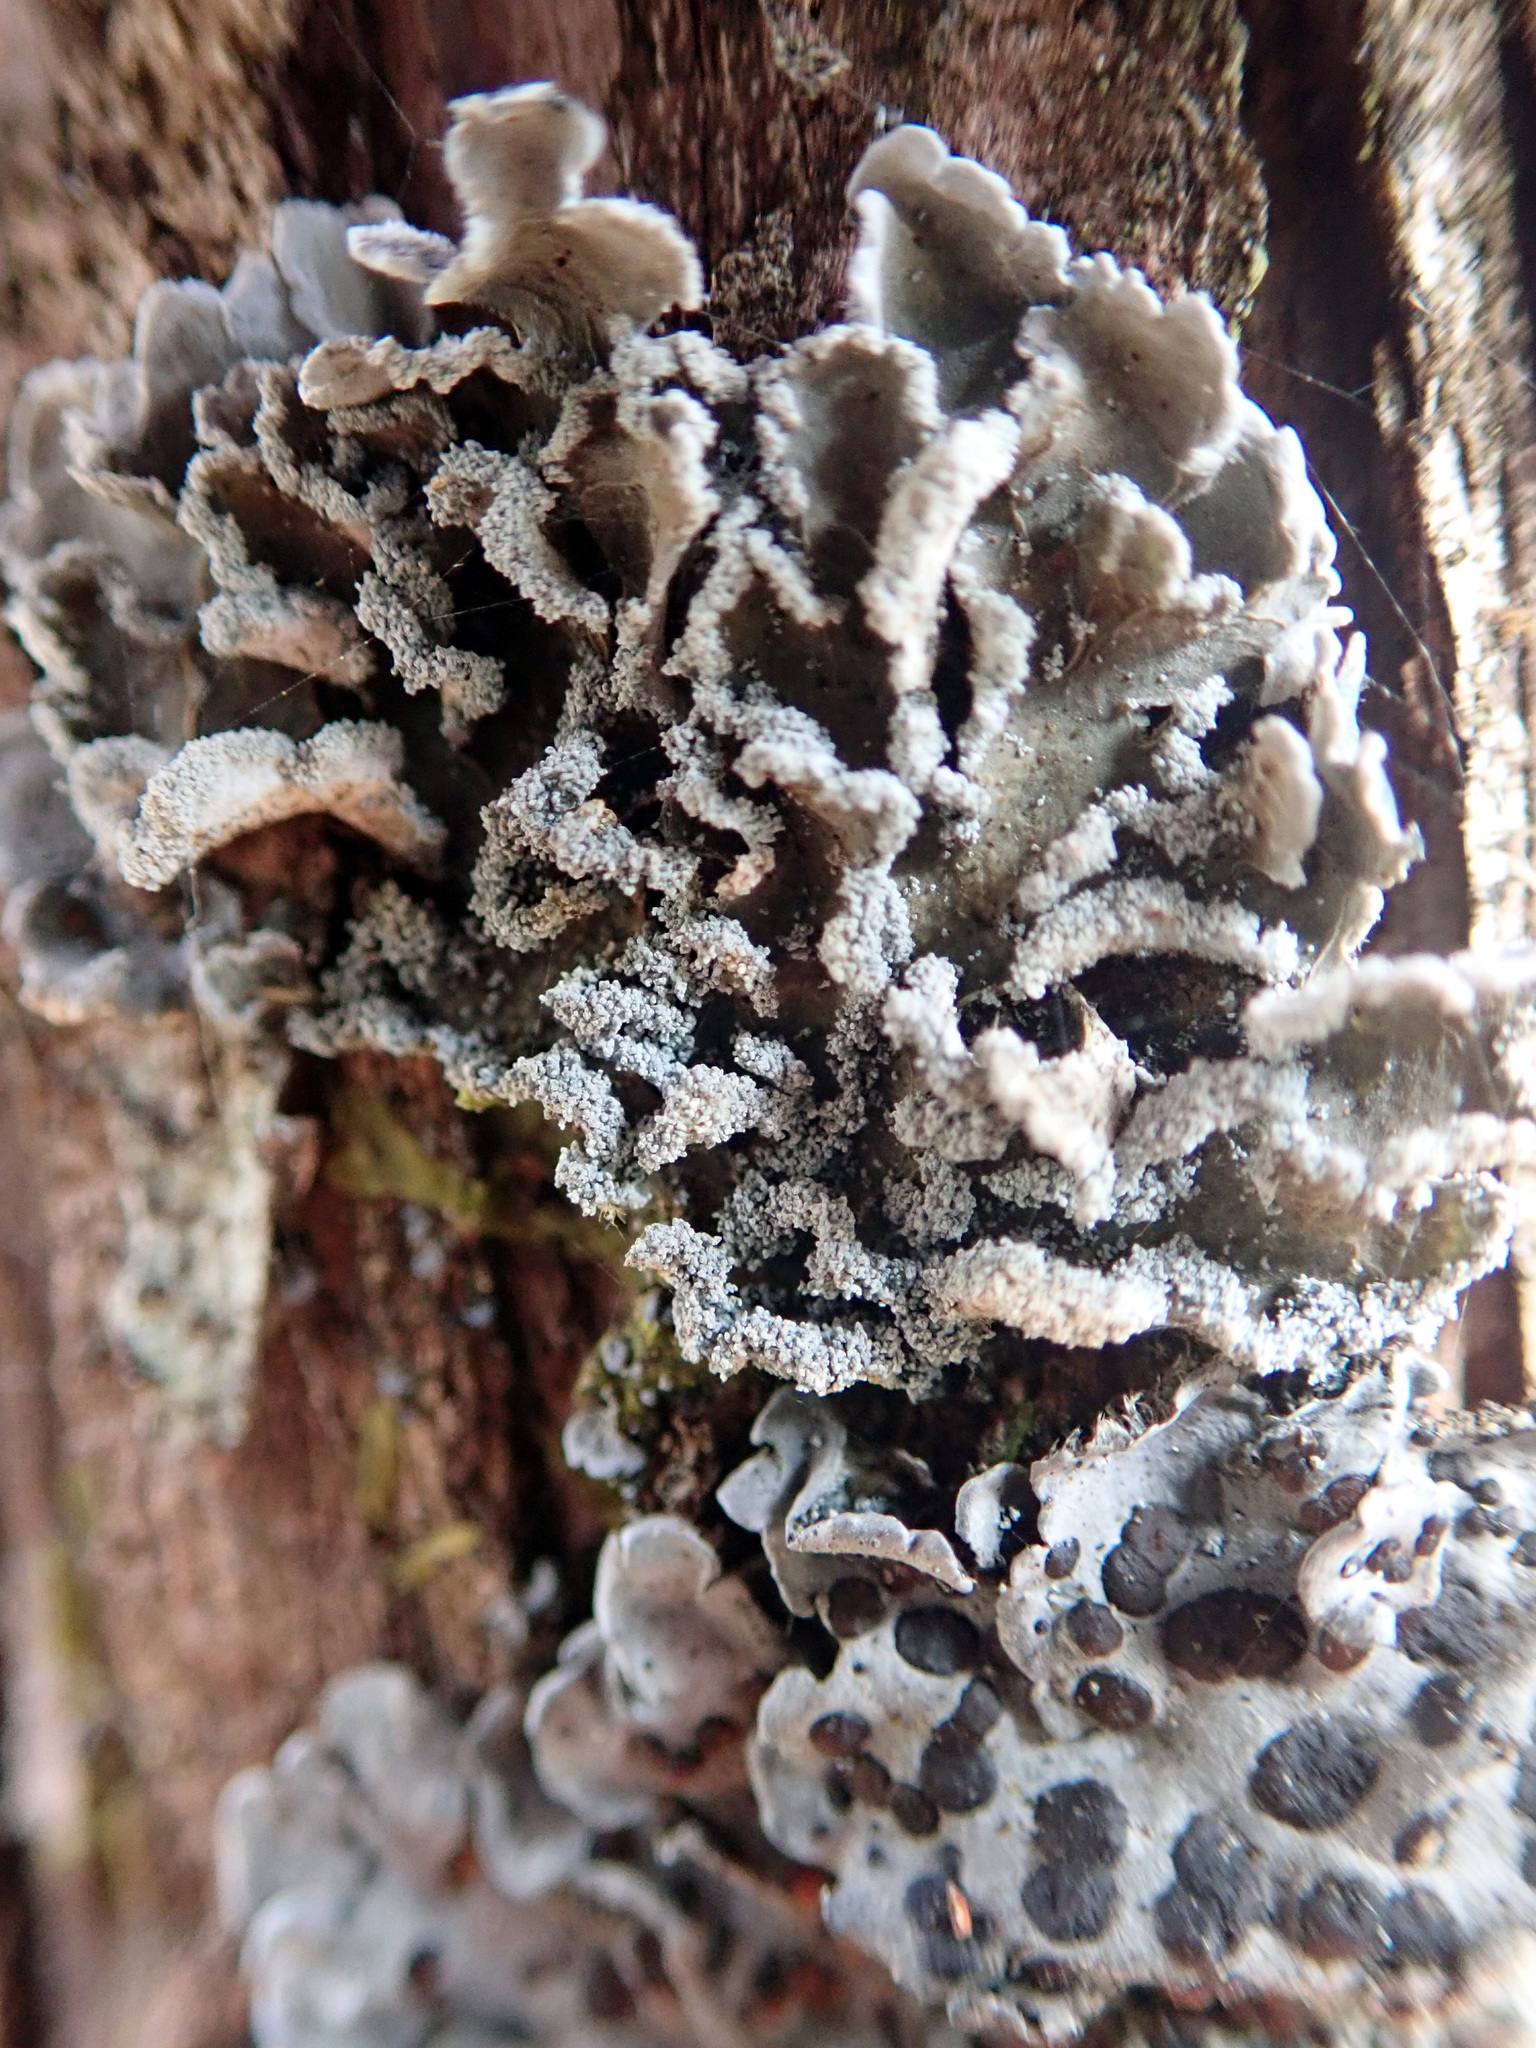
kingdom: Fungi
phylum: Ascomycota
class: Lecanoromycetes
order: Peltigerales
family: Pannariaceae
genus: Pannaria
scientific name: Pannaria fulvescens
